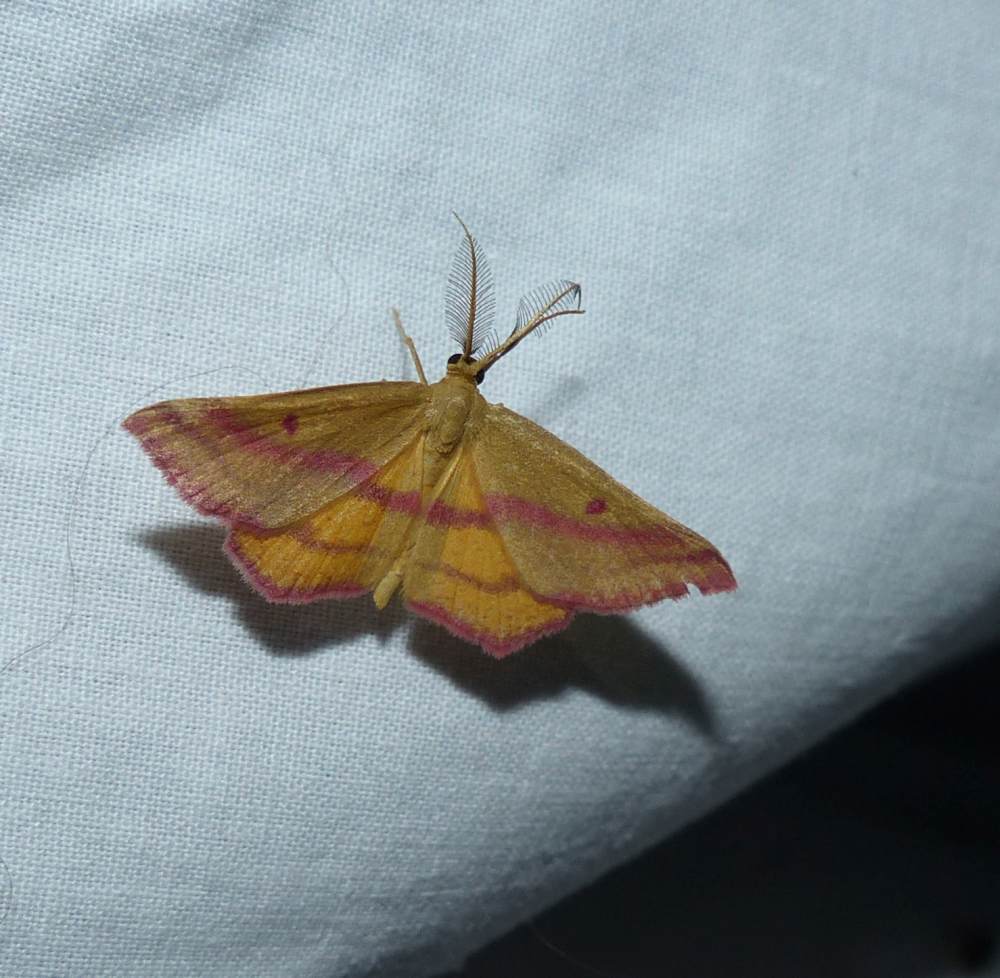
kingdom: Animalia
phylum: Arthropoda
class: Insecta
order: Lepidoptera
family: Geometridae
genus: Haematopis
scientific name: Haematopis grataria
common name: Chickweed geometer
